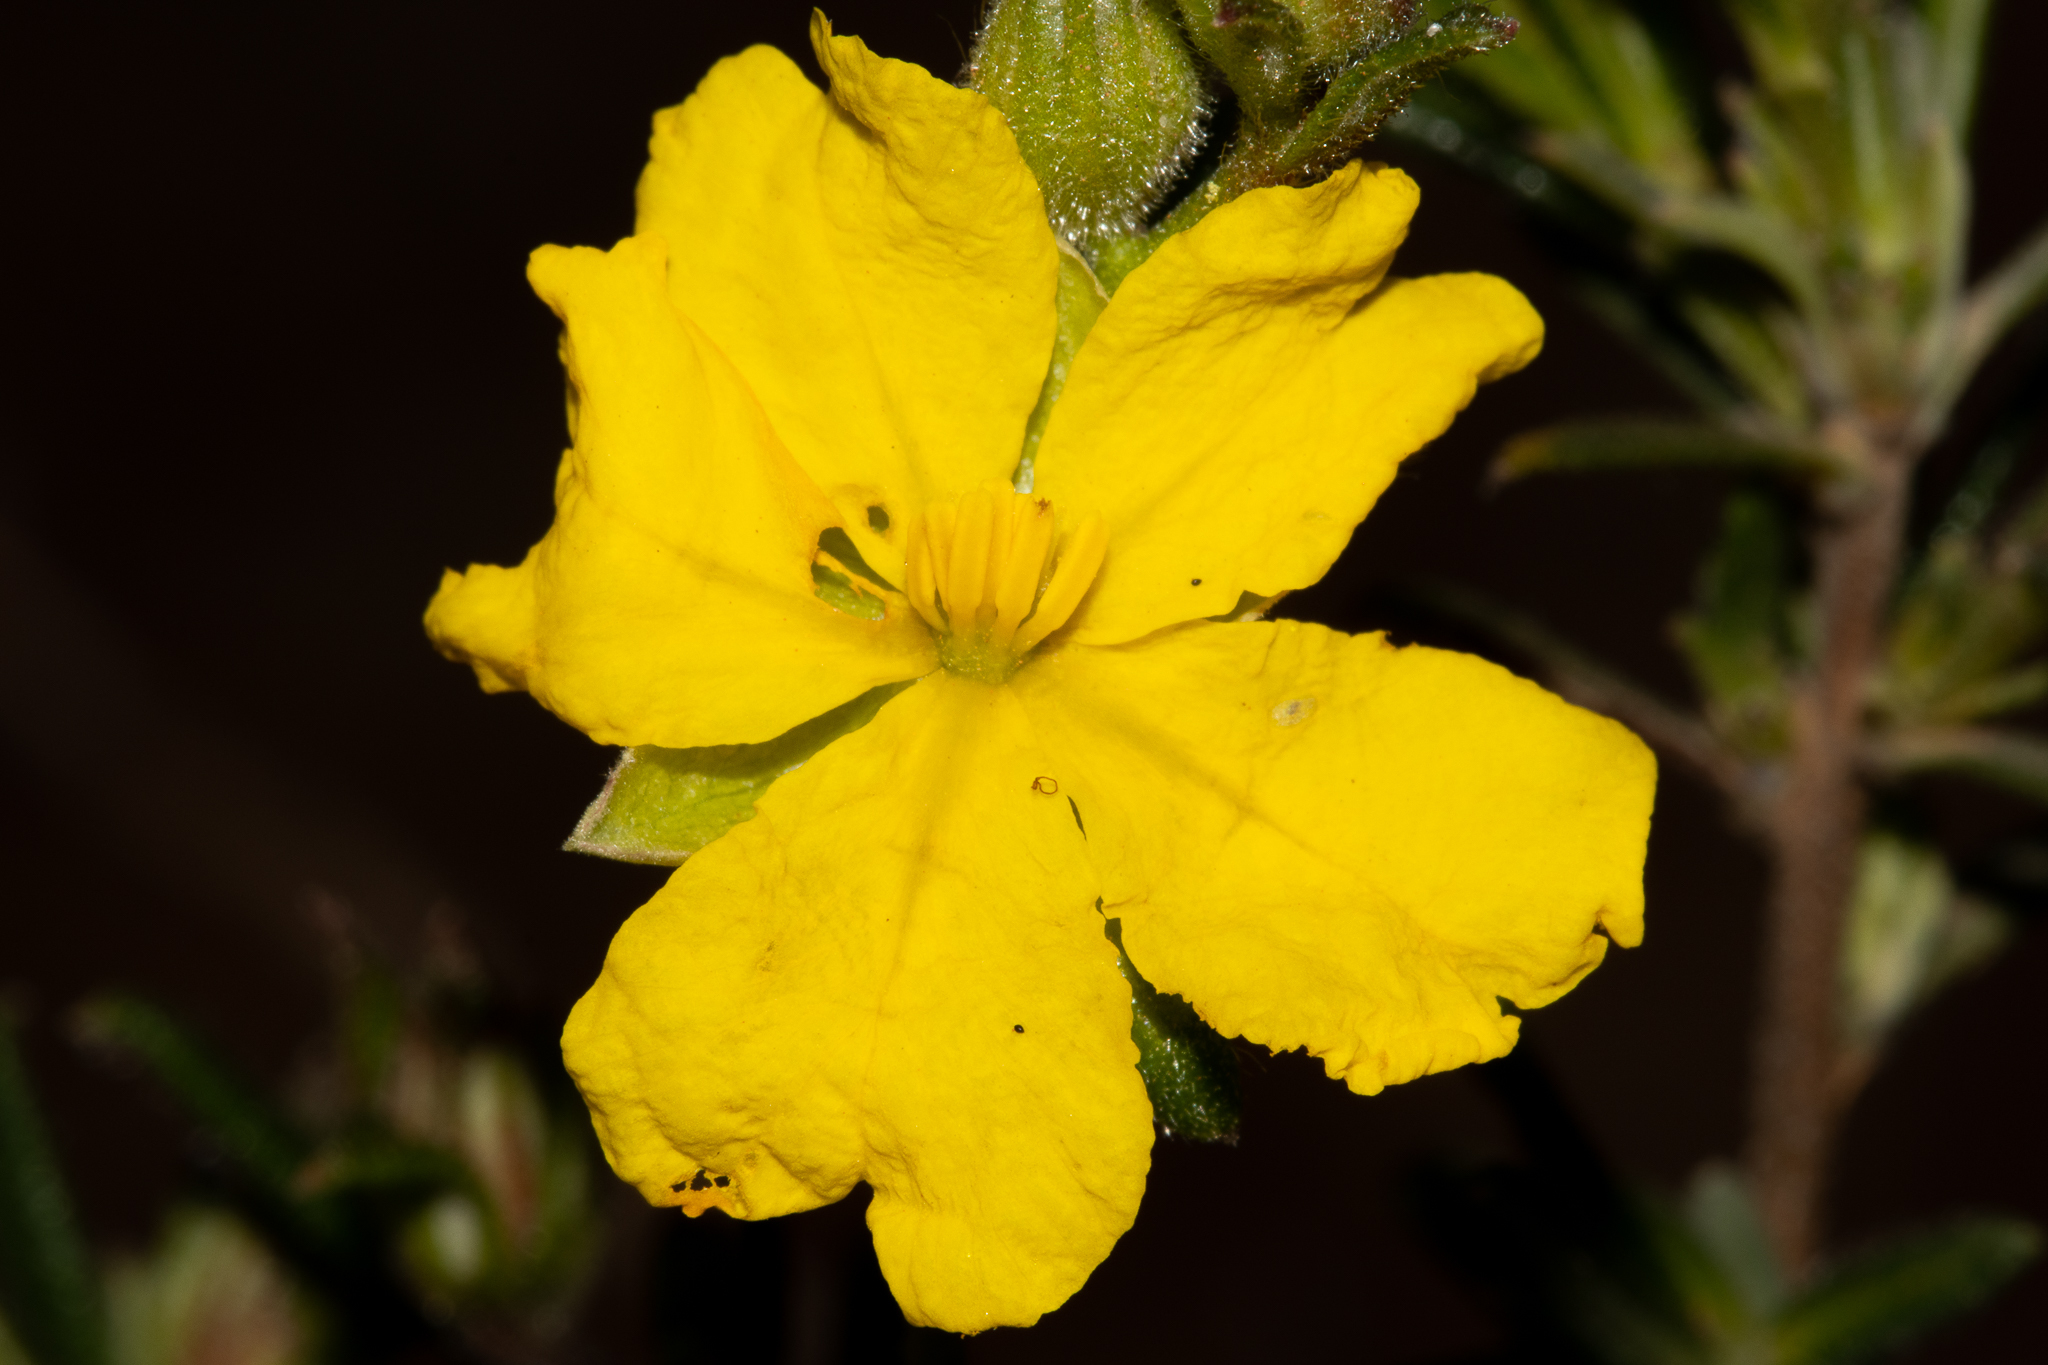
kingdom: Plantae
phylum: Tracheophyta
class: Magnoliopsida
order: Dilleniales
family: Dilleniaceae
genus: Hibbertia
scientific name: Hibbertia polystachya
